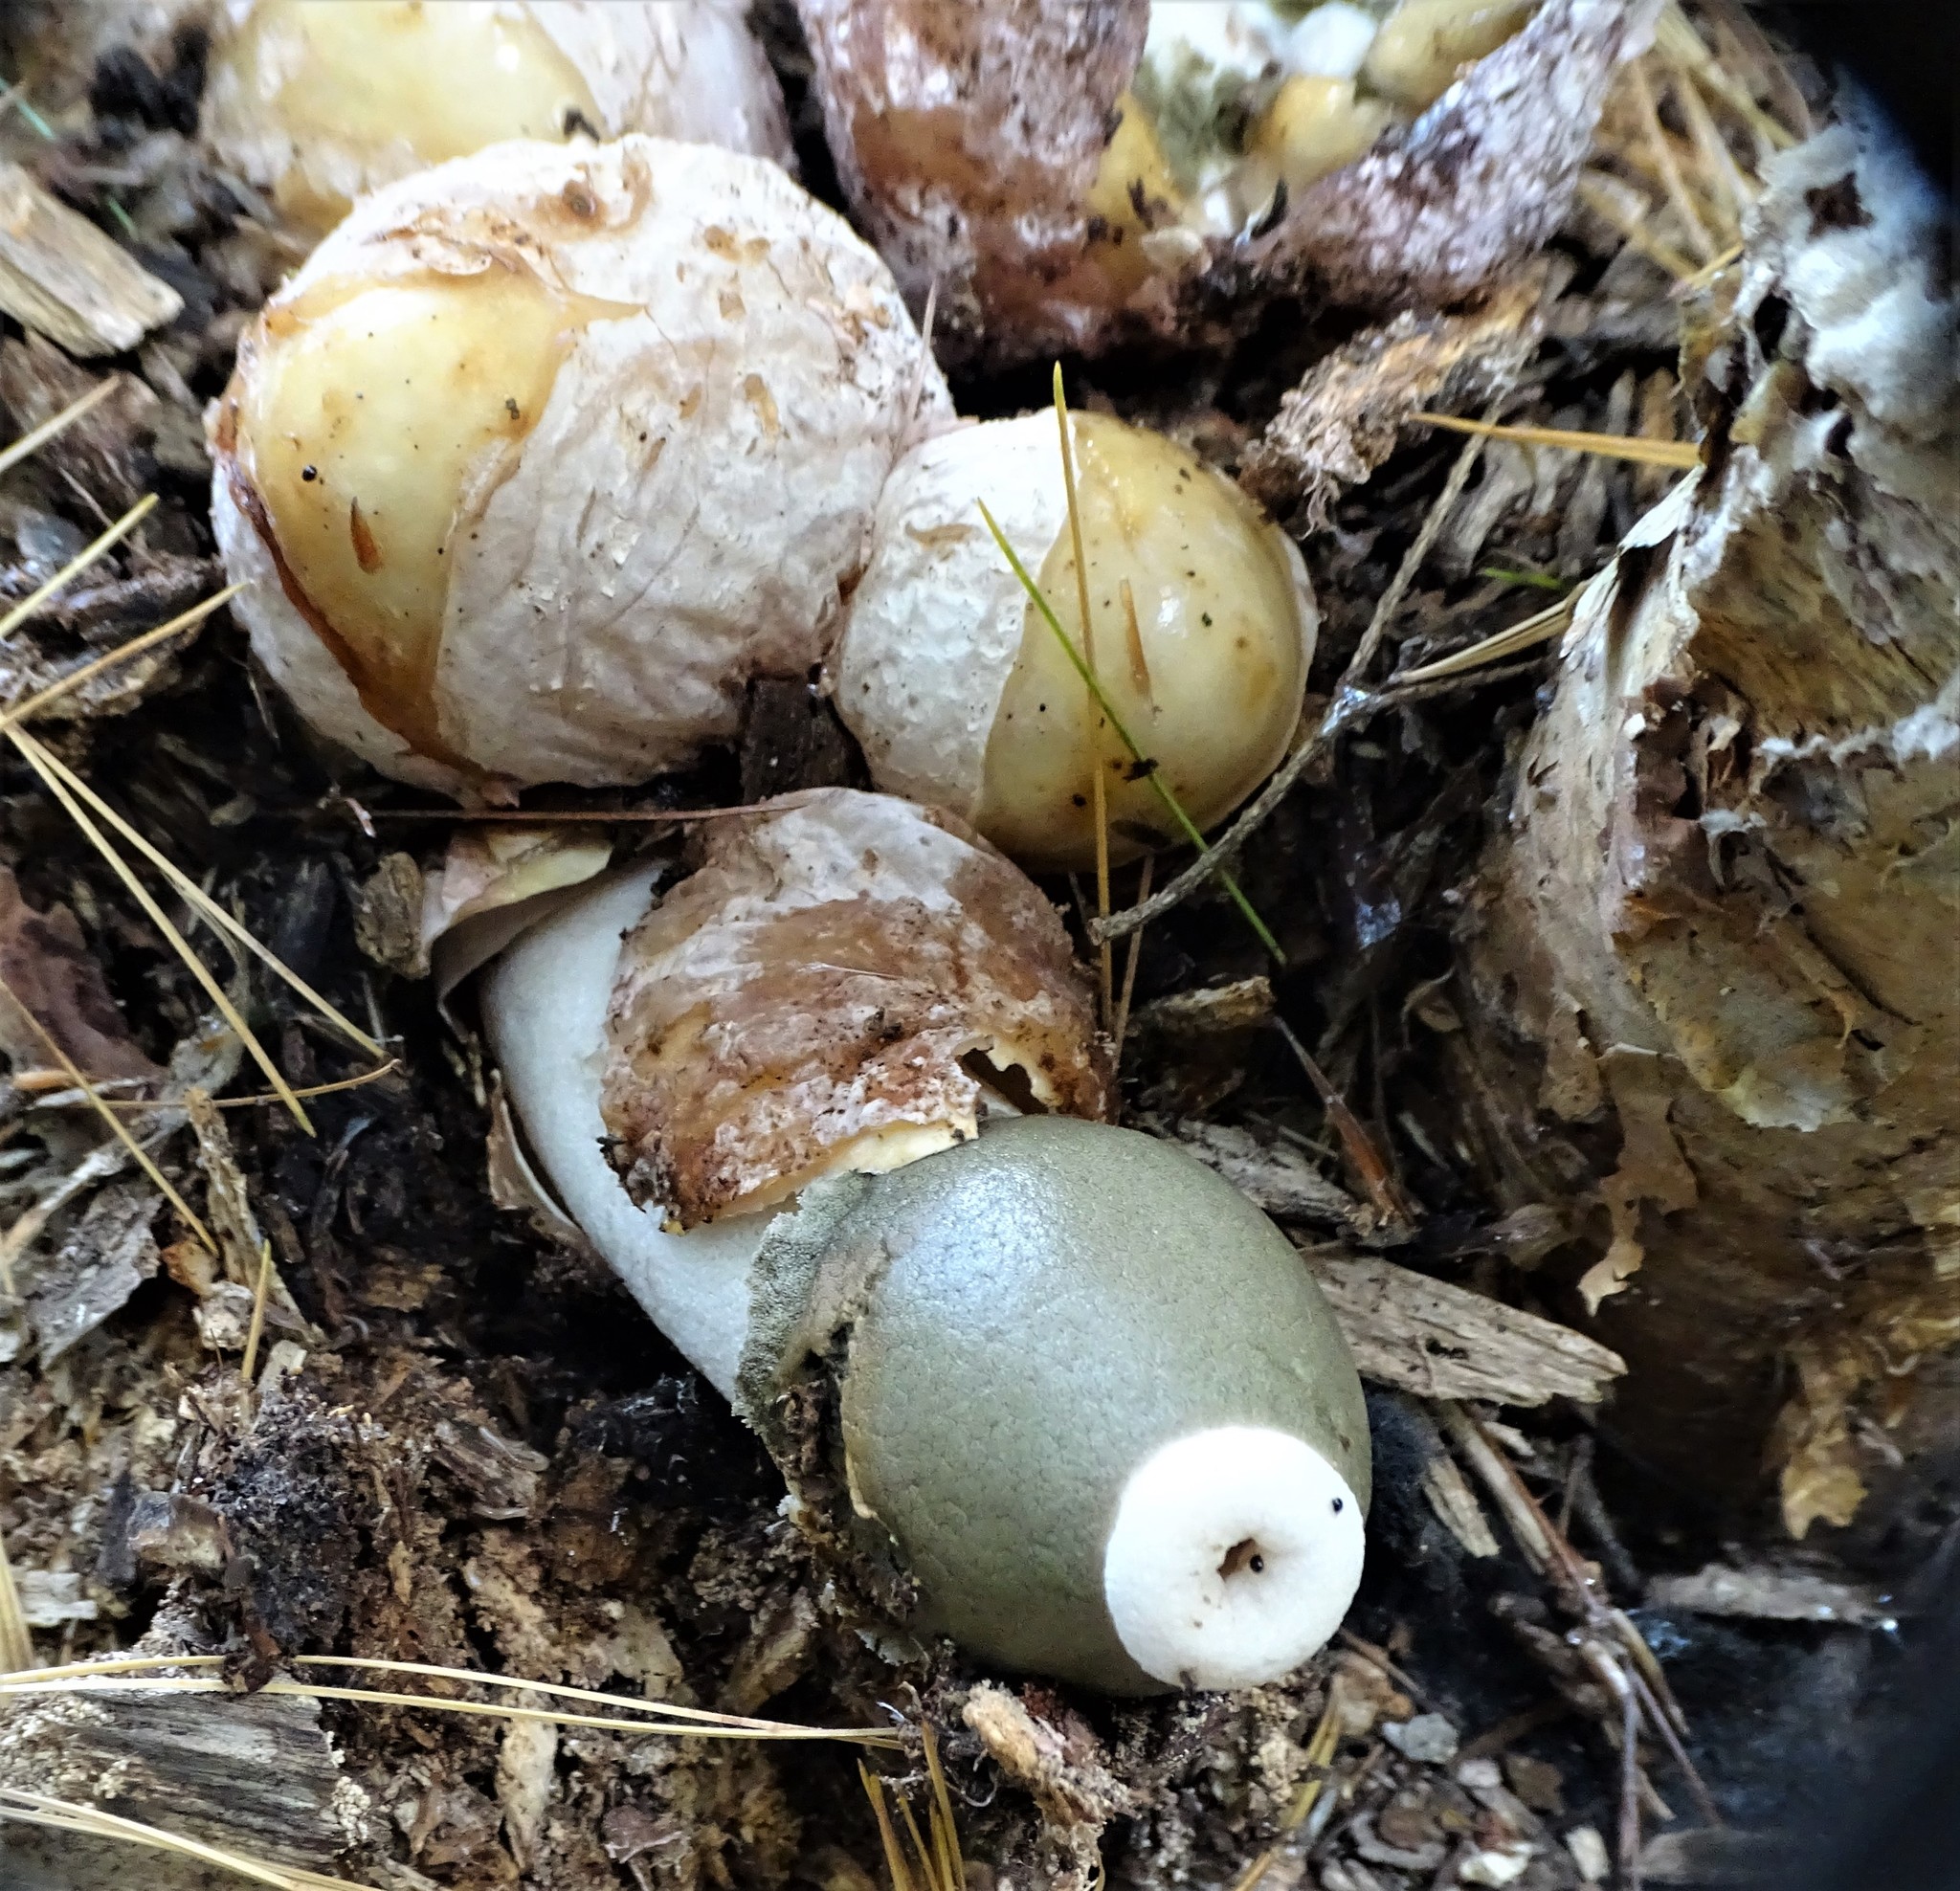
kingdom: Fungi
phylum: Basidiomycota
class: Agaricomycetes
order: Phallales
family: Phallaceae
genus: Phallus
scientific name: Phallus ravenelii
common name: Ravenel's stinkhorn
